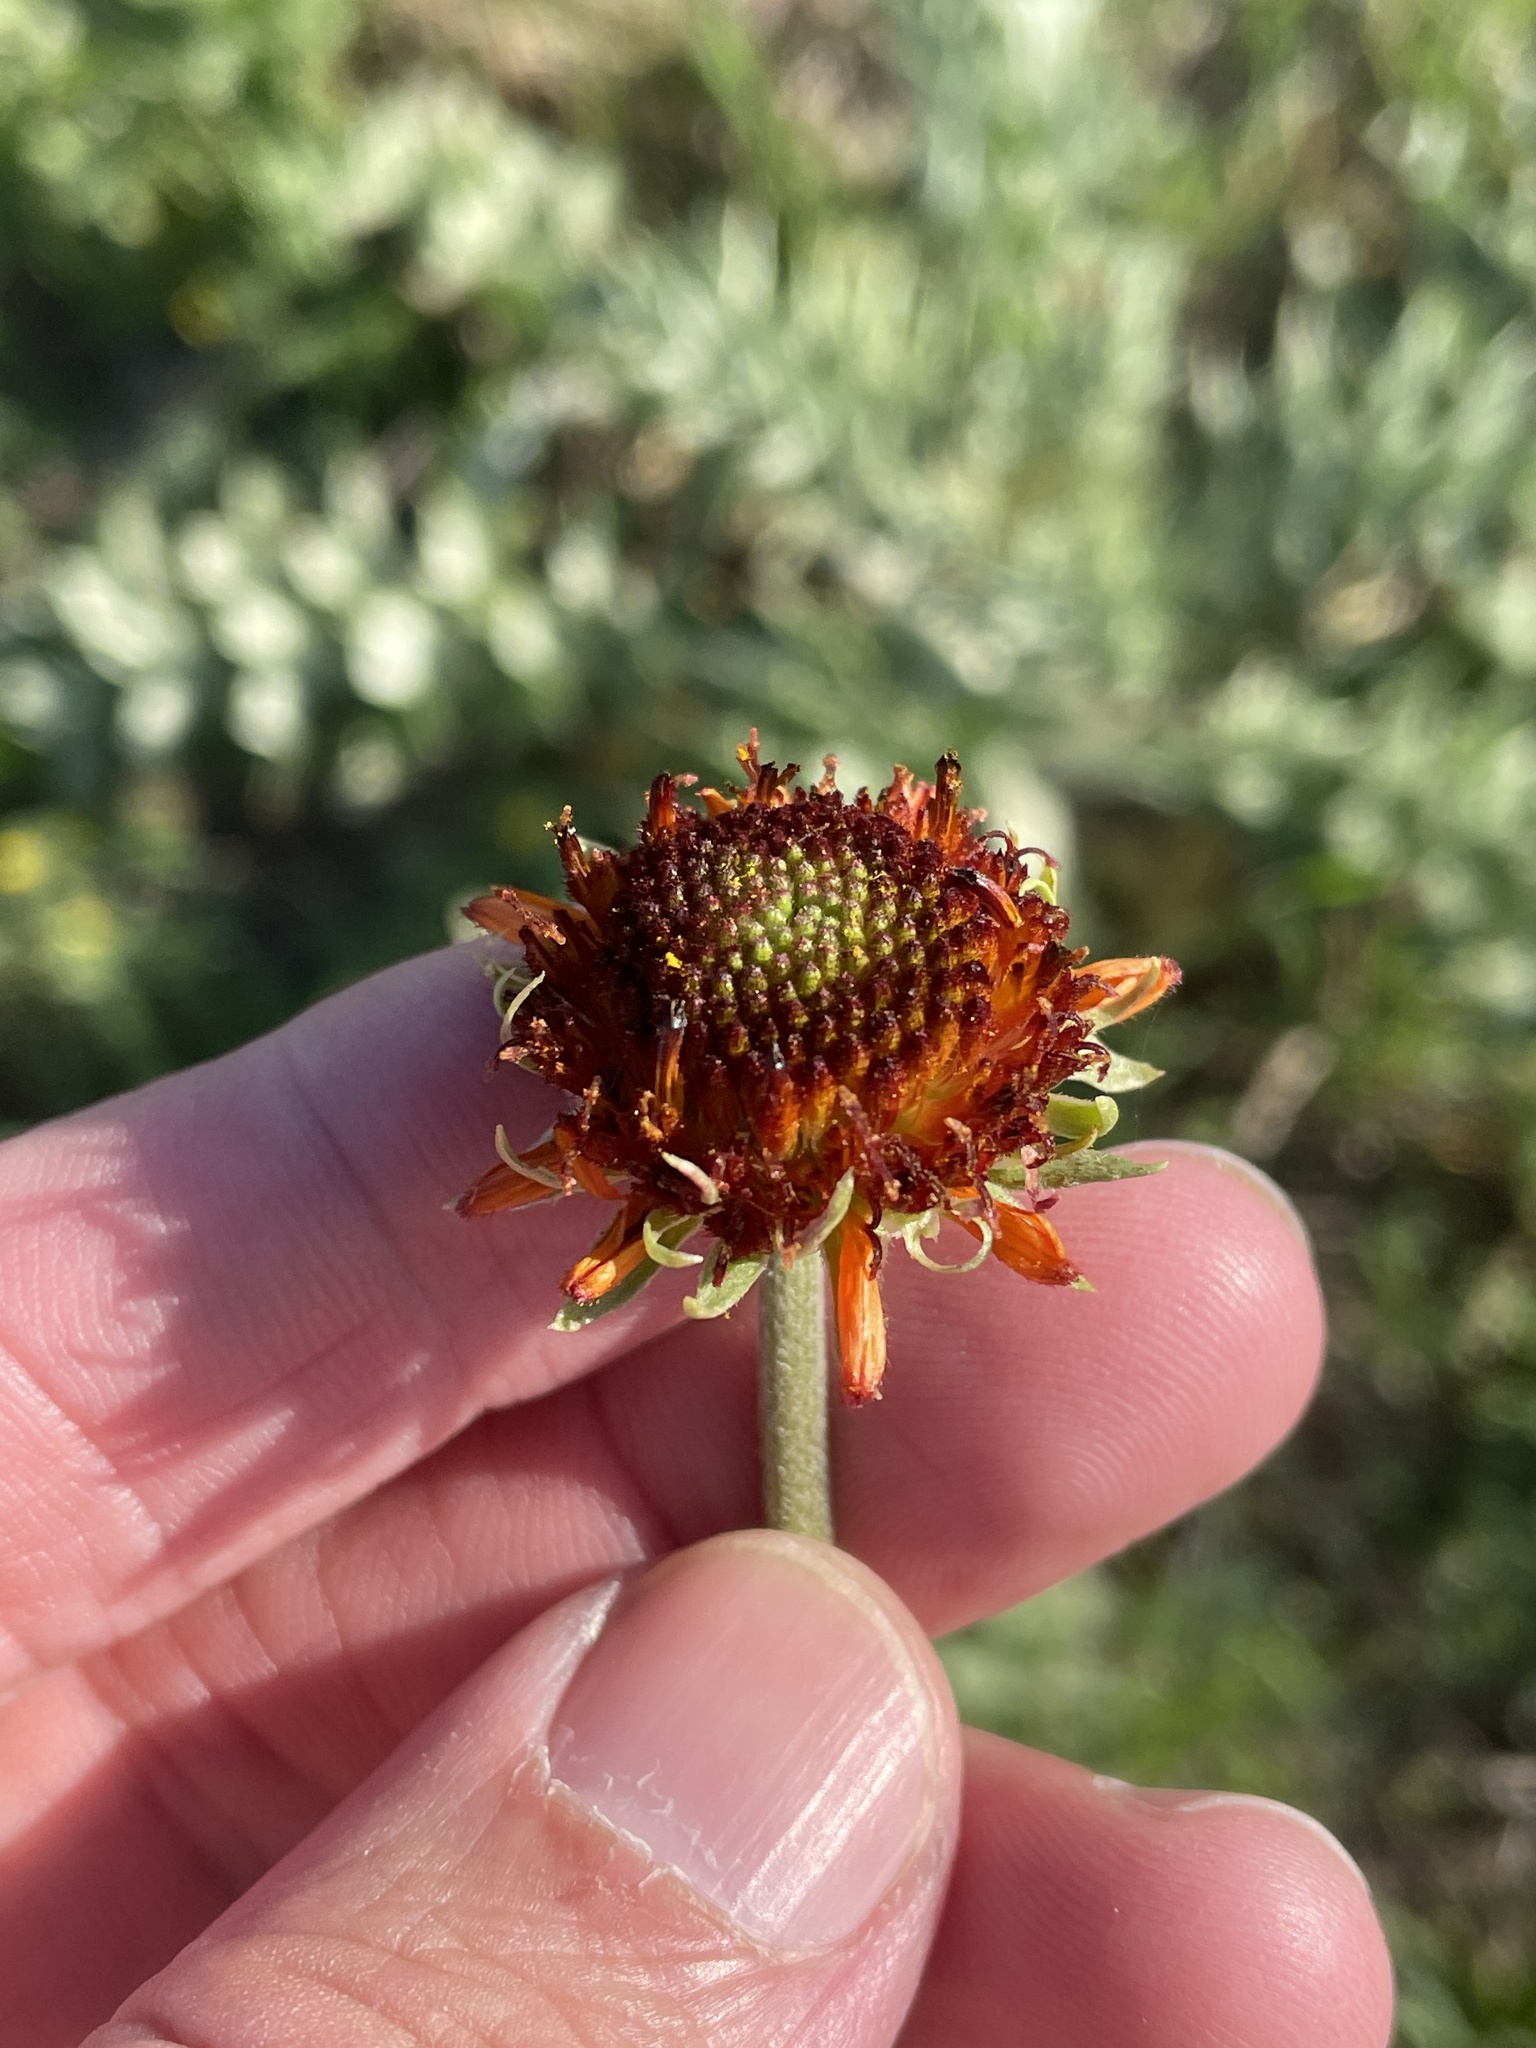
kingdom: Plantae
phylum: Tracheophyta
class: Magnoliopsida
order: Asterales
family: Asteraceae
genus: Gaillardia
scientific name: Gaillardia suavis
